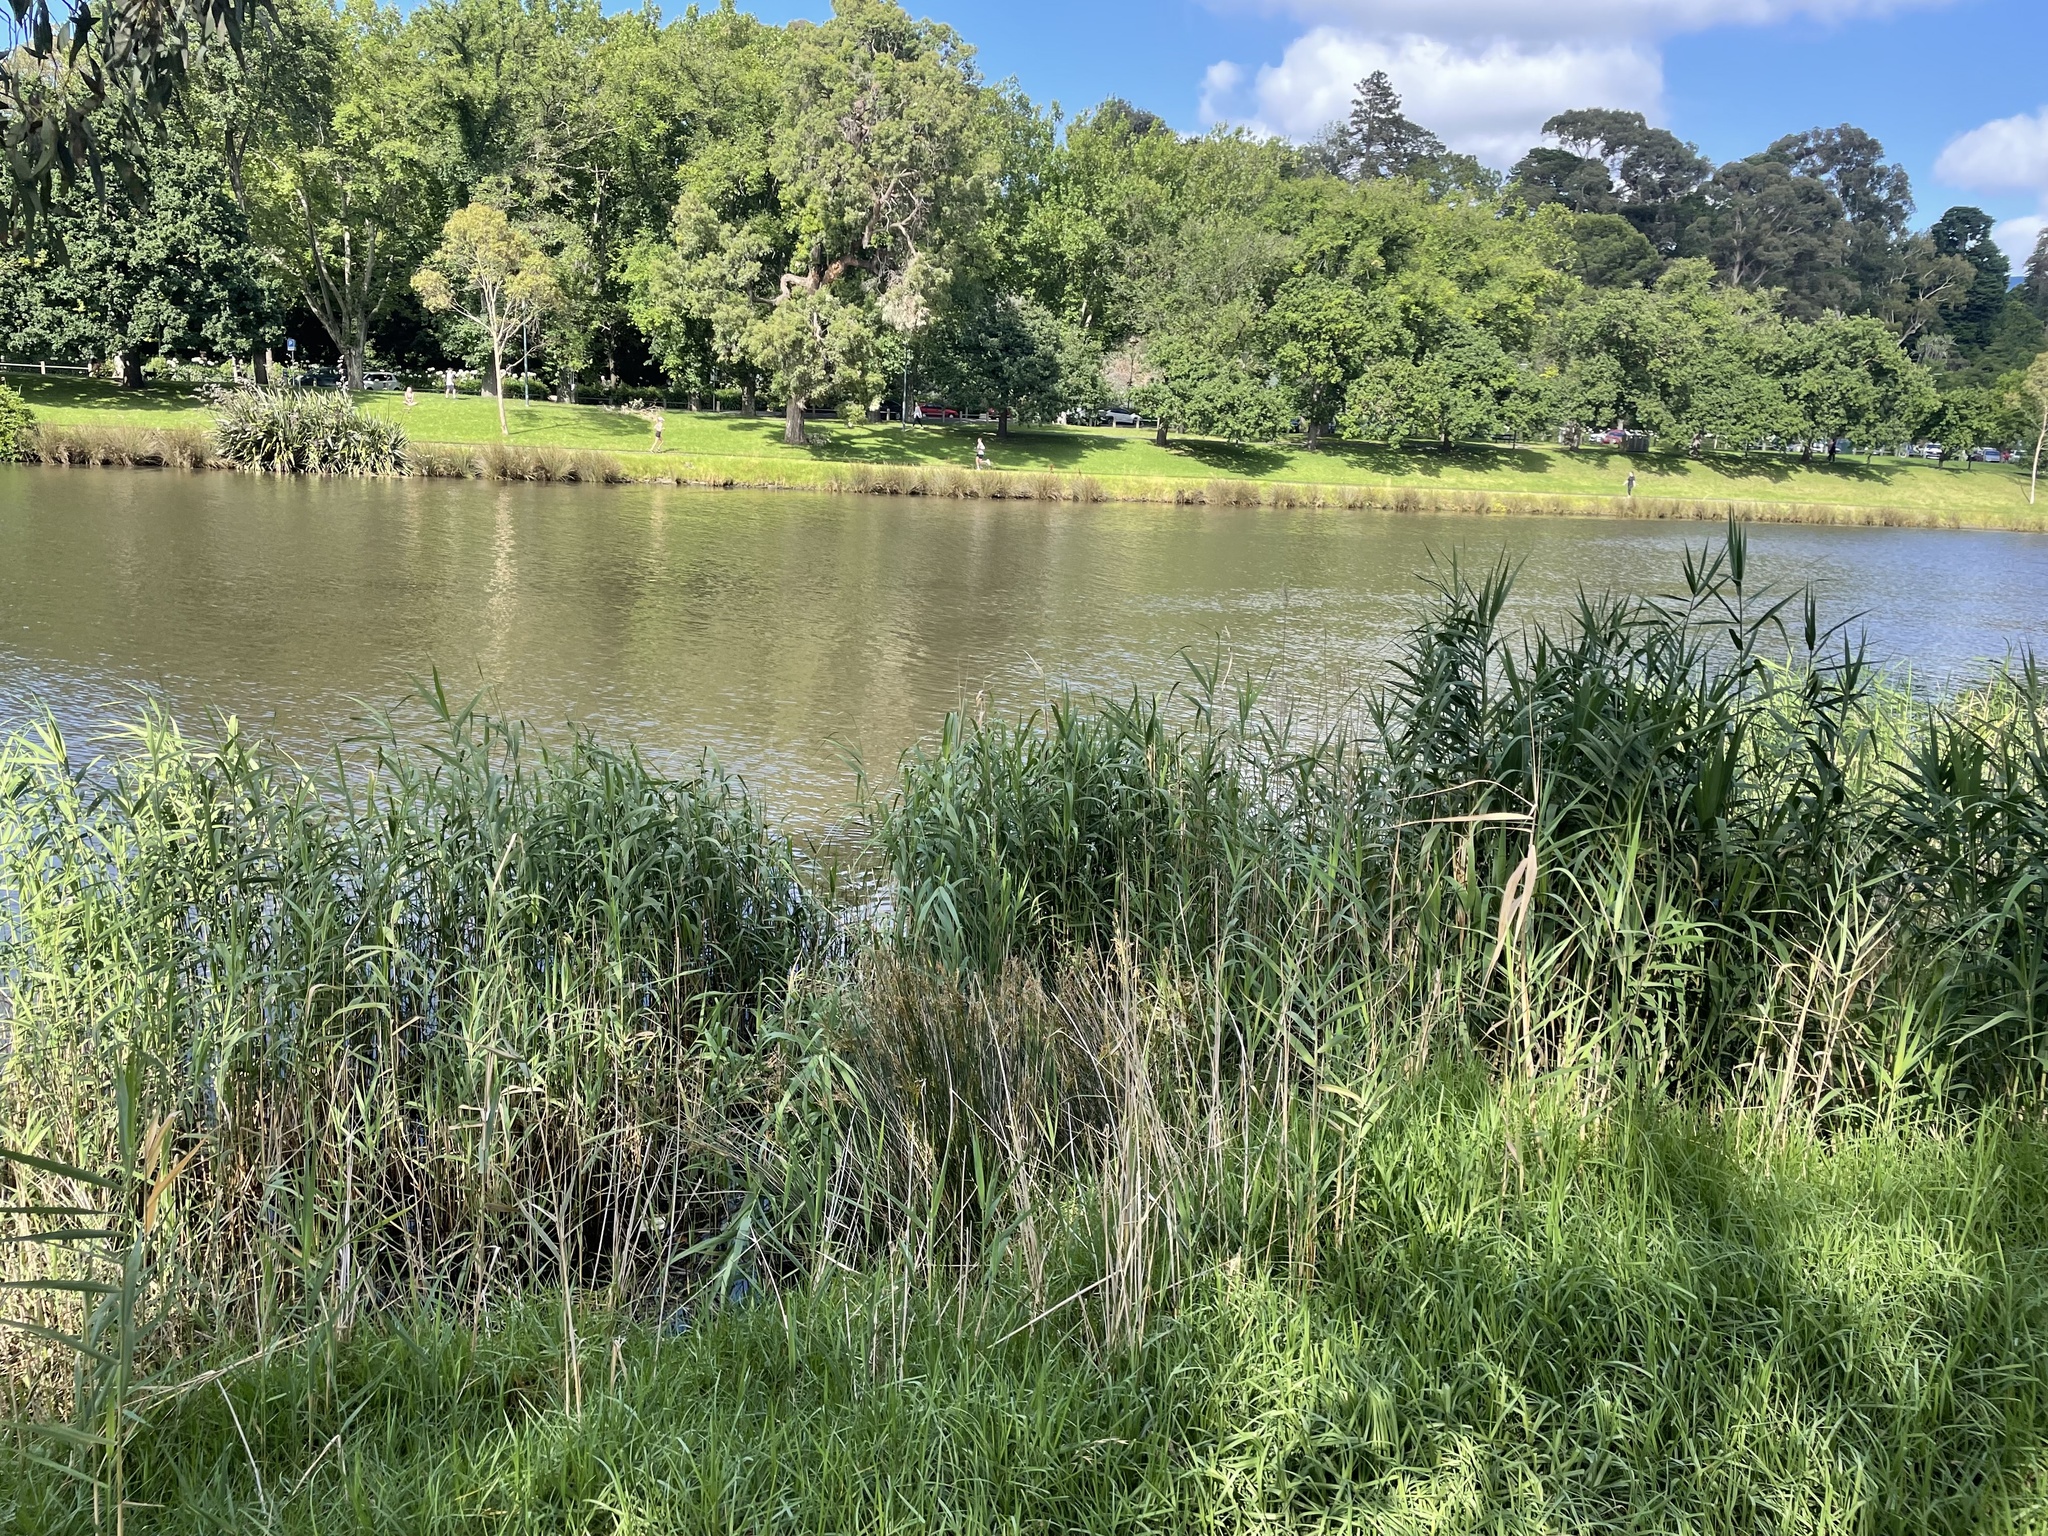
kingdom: Plantae
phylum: Tracheophyta
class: Liliopsida
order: Poales
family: Poaceae
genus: Phragmites
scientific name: Phragmites australis
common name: Common reed
